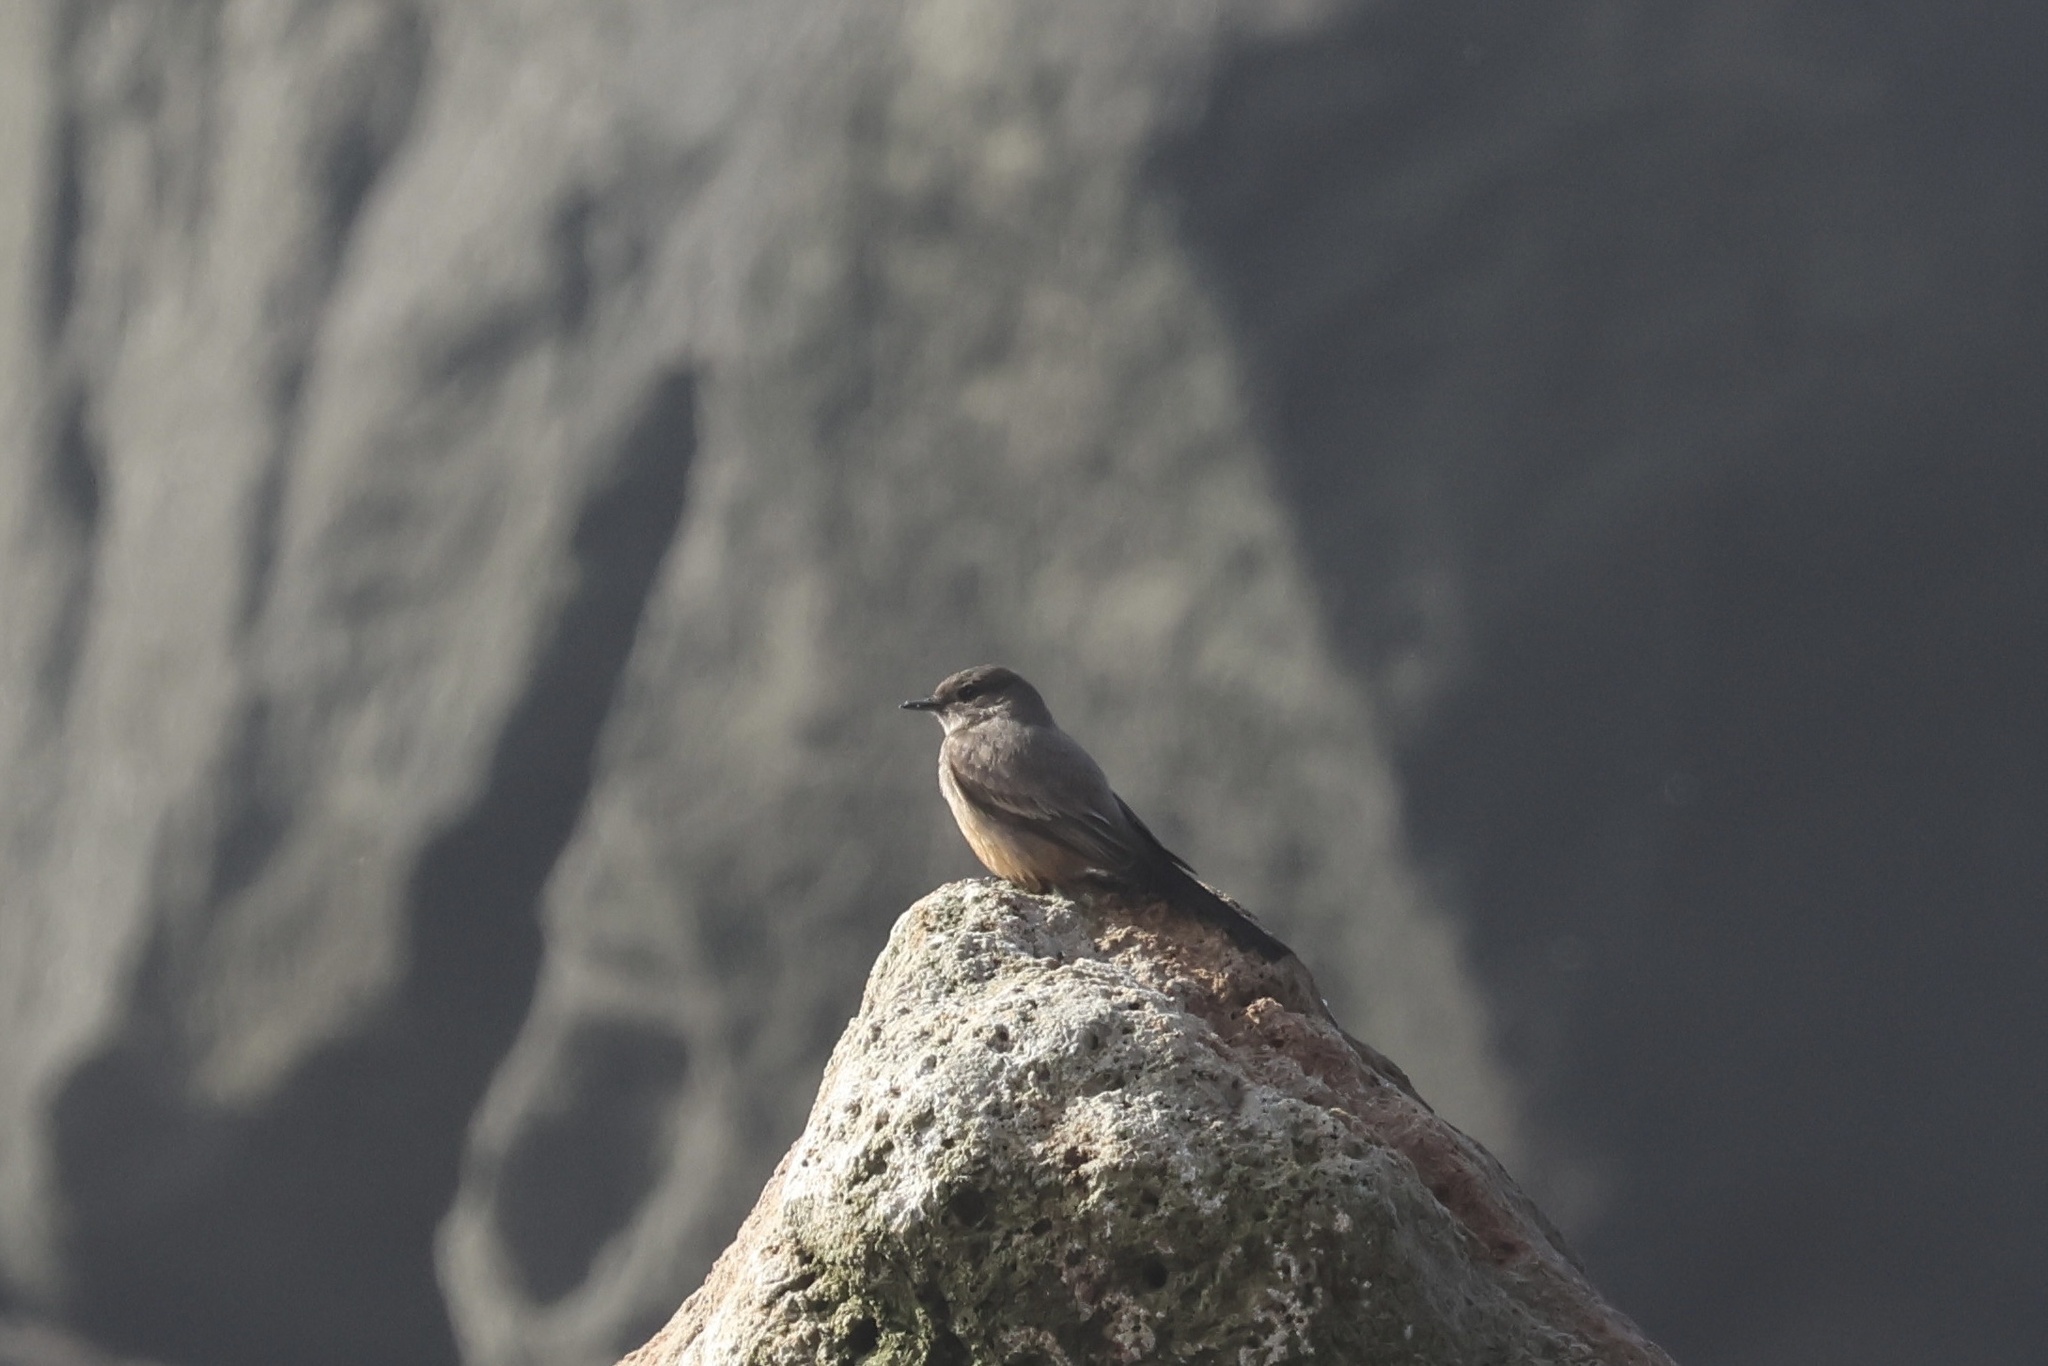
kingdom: Animalia
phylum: Chordata
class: Aves
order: Passeriformes
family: Tyrannidae
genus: Sayornis
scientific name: Sayornis saya
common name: Say's phoebe
